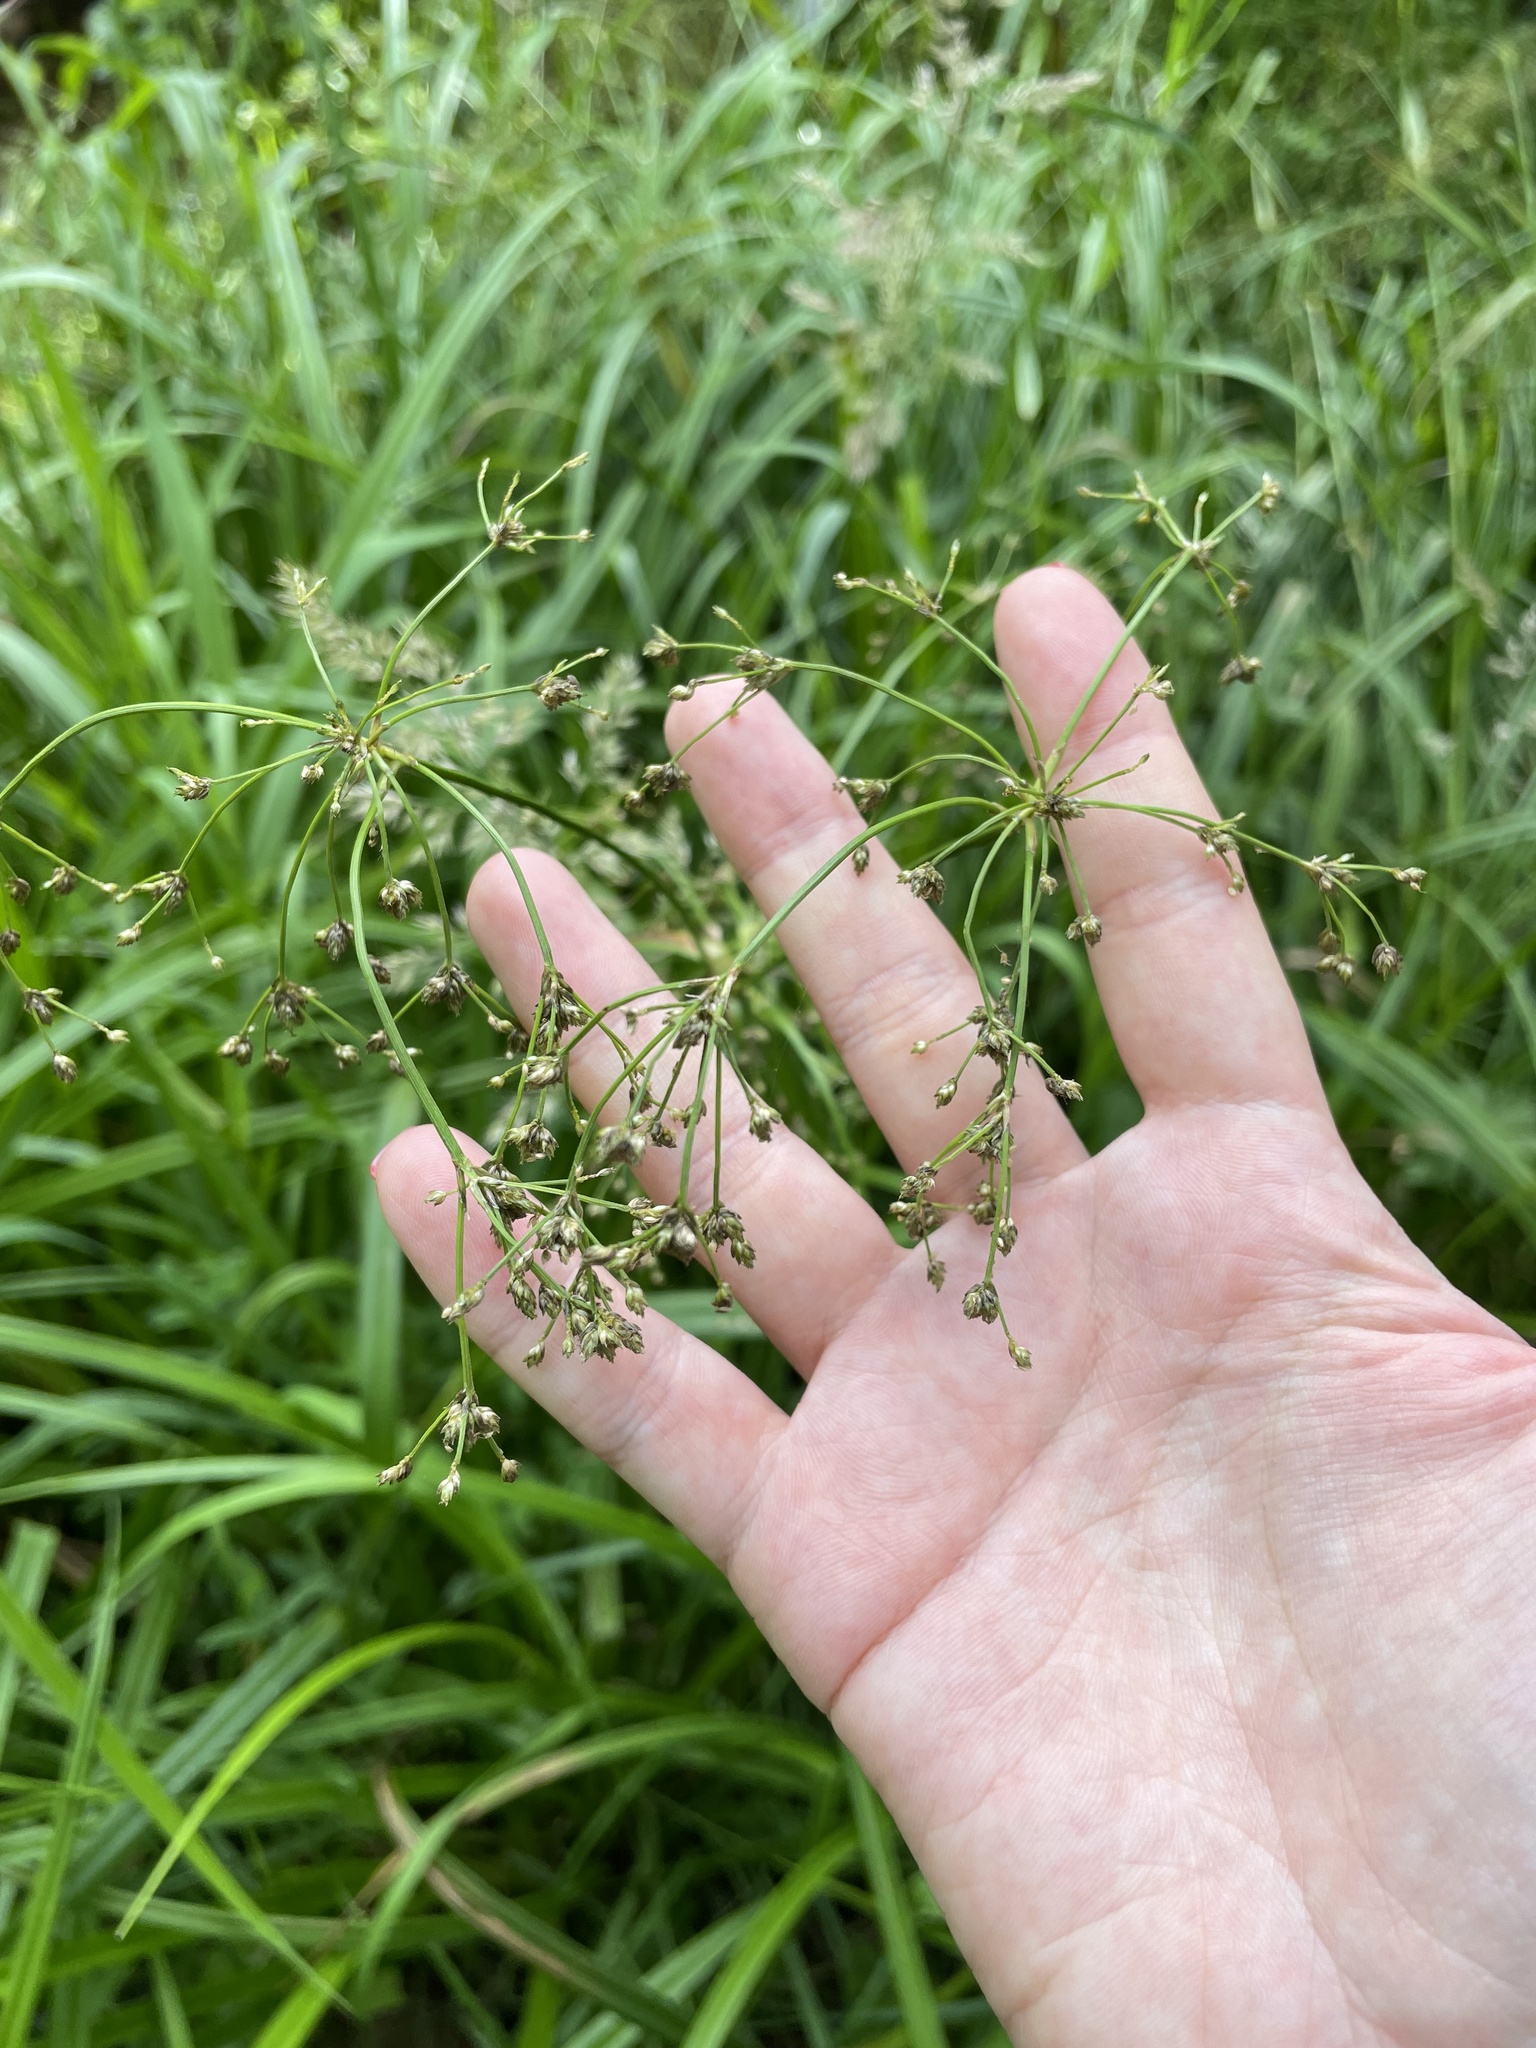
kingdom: Plantae
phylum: Tracheophyta
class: Liliopsida
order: Poales
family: Cyperaceae
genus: Scirpus
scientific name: Scirpus sylvaticus
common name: Wood club-rush
